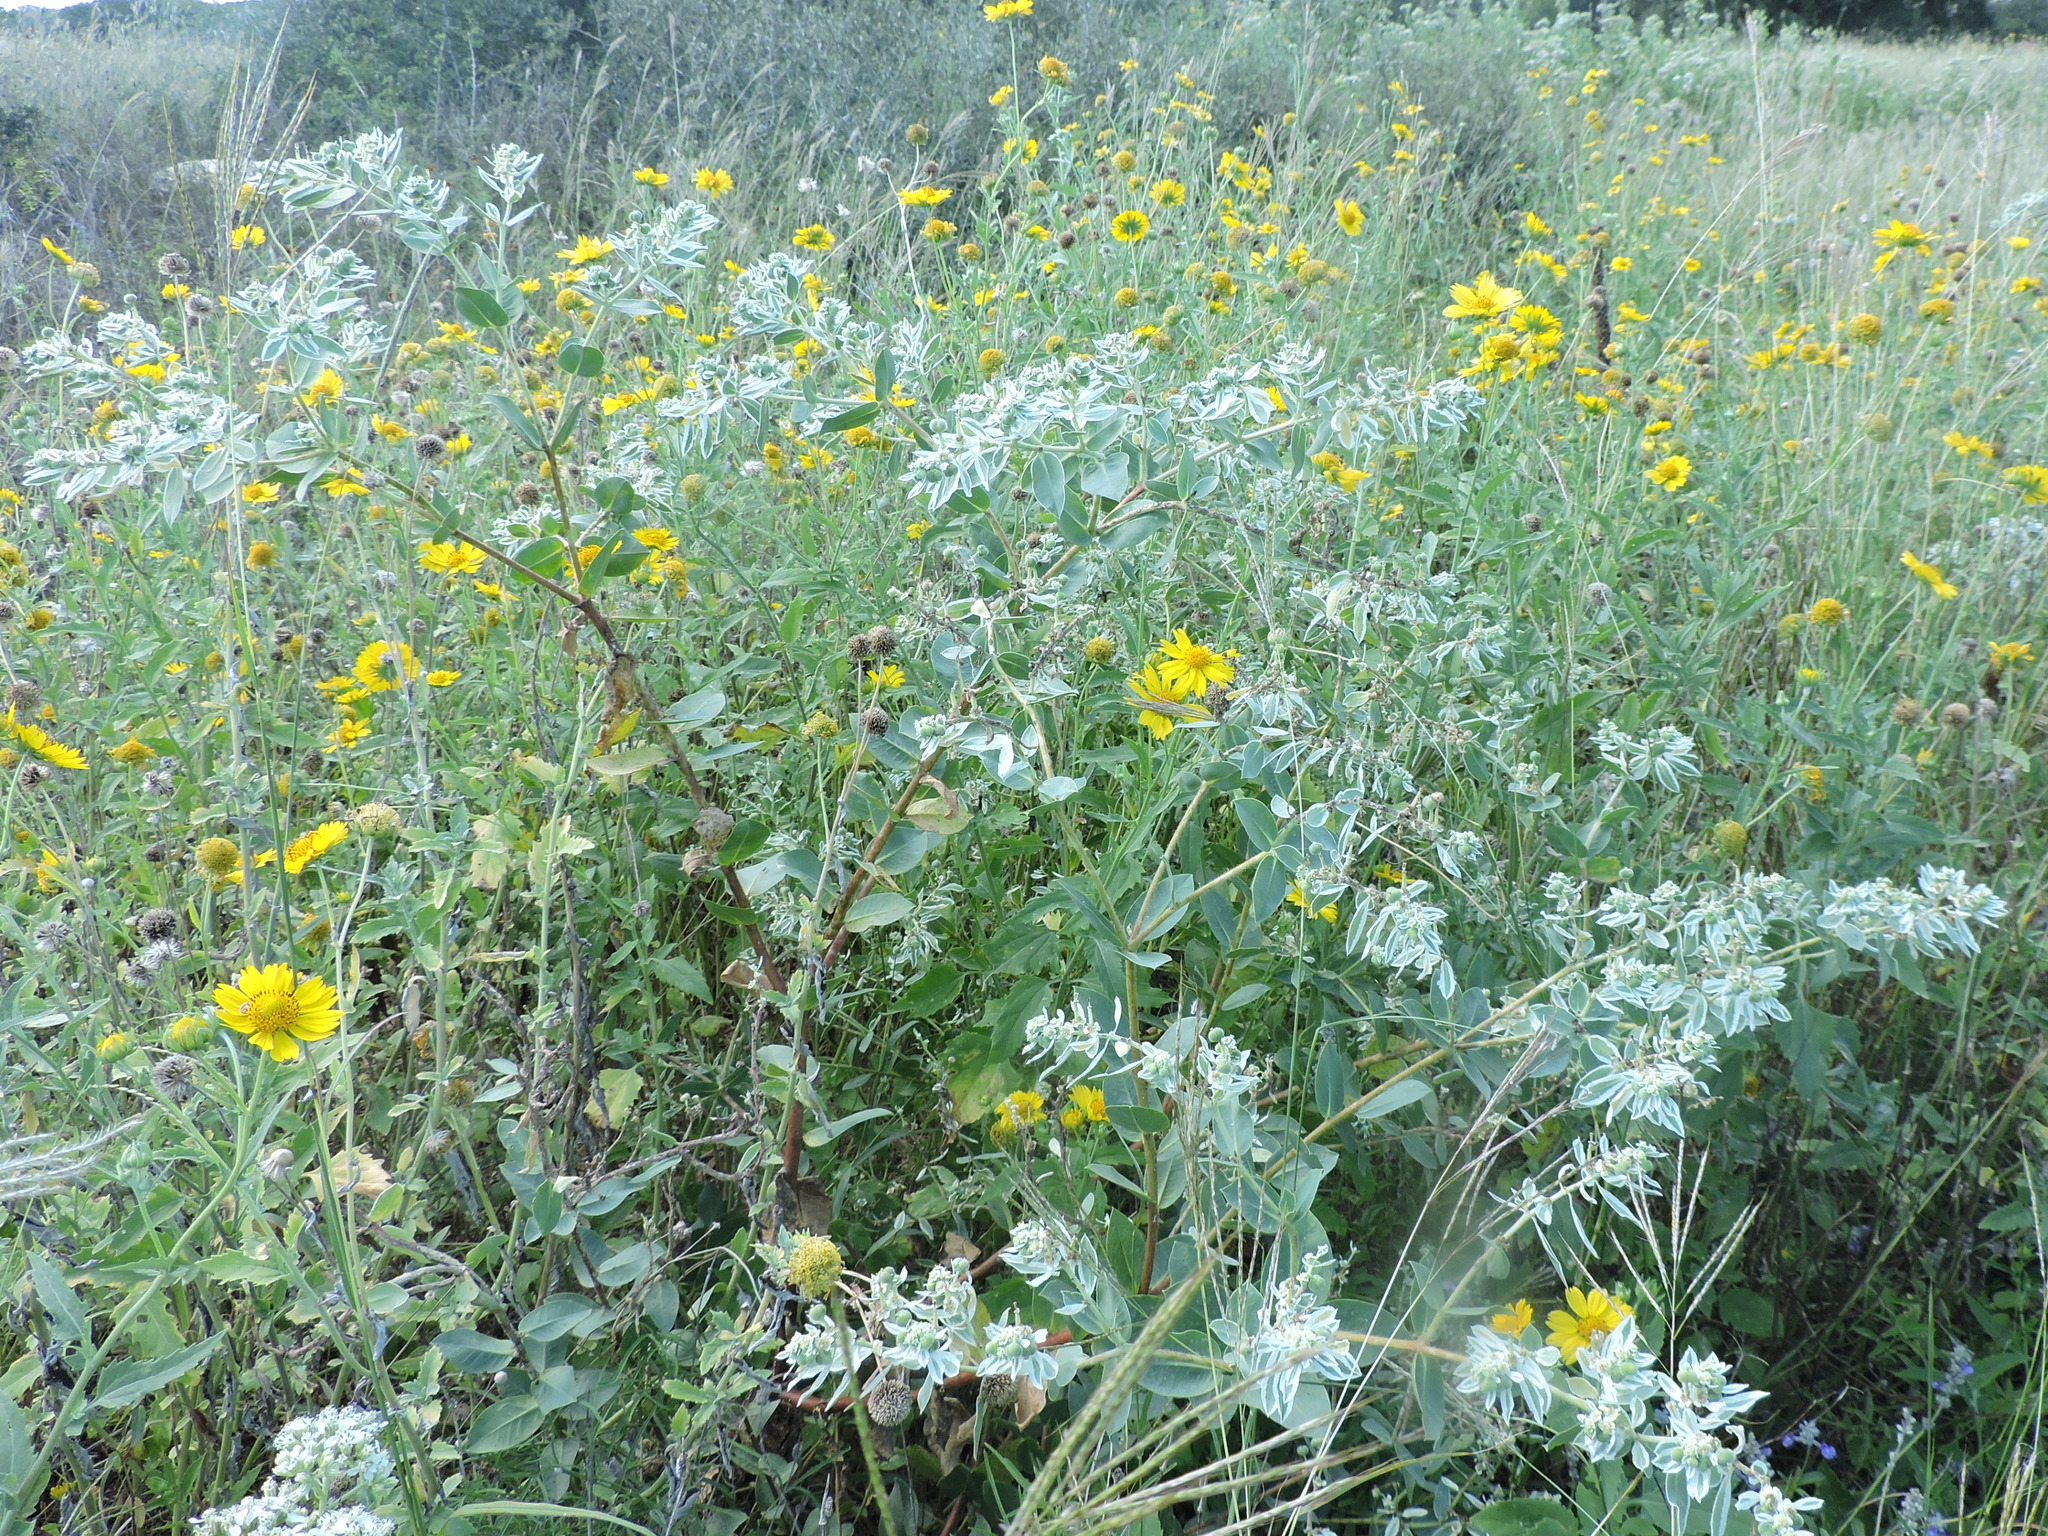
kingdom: Plantae
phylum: Tracheophyta
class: Magnoliopsida
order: Malpighiales
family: Euphorbiaceae
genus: Euphorbia
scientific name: Euphorbia marginata
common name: Ghostweed
